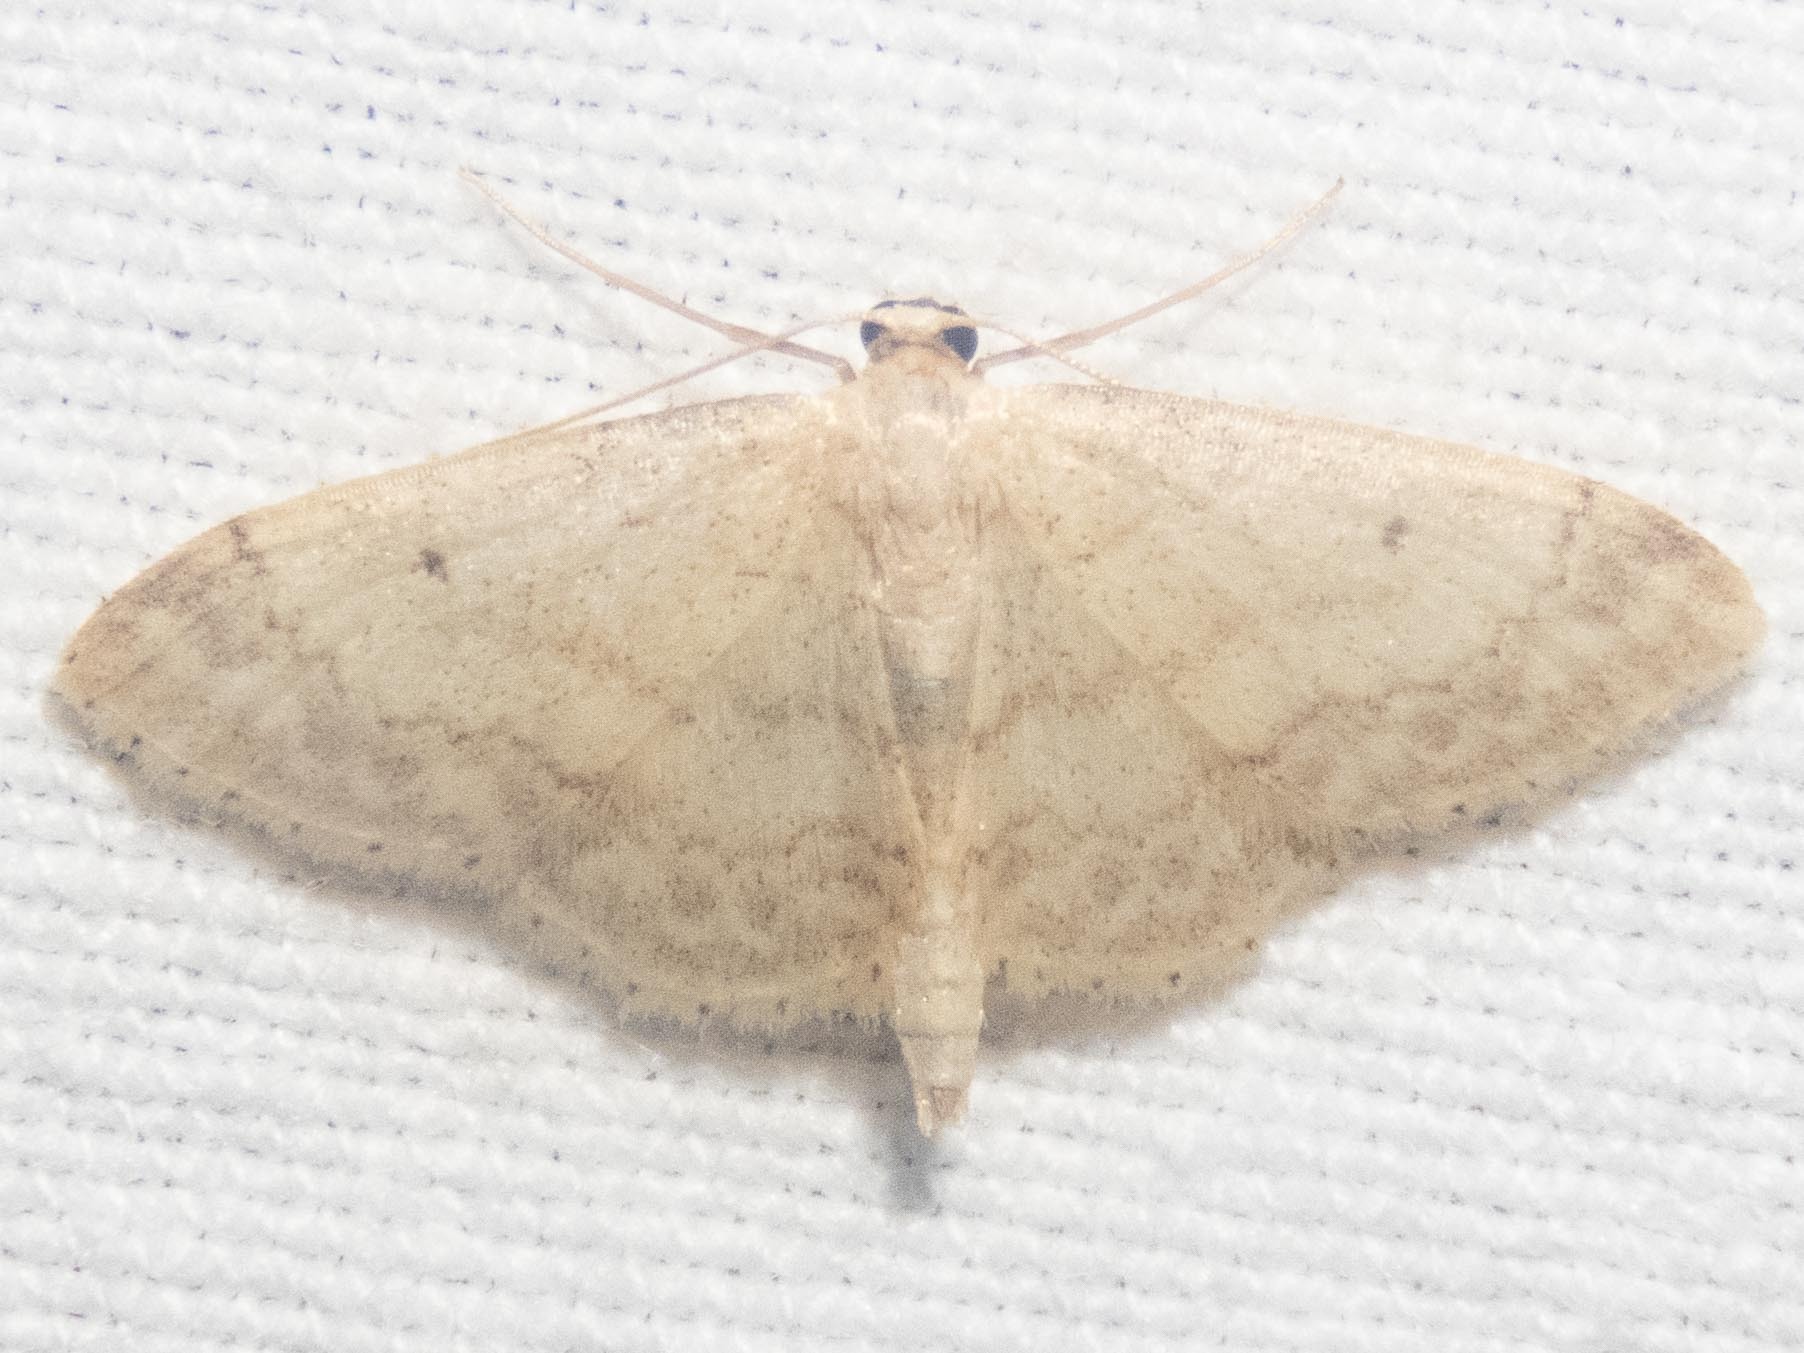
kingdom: Animalia
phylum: Arthropoda
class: Insecta
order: Lepidoptera
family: Geometridae
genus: Idaea
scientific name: Idaea biselata
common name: Small fan-footed wave
